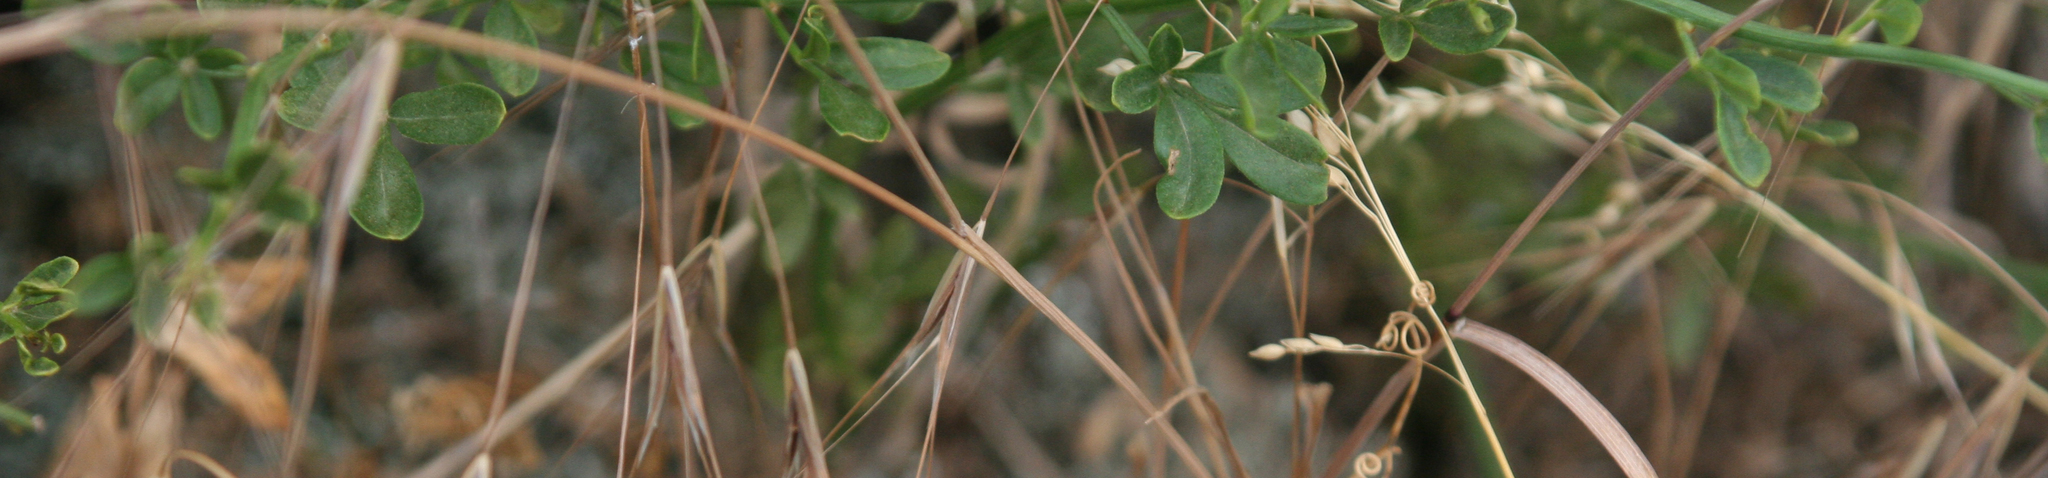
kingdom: Plantae
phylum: Tracheophyta
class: Magnoliopsida
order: Lamiales
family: Oleaceae
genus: Chrysojasminum
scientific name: Chrysojasminum fruticans
